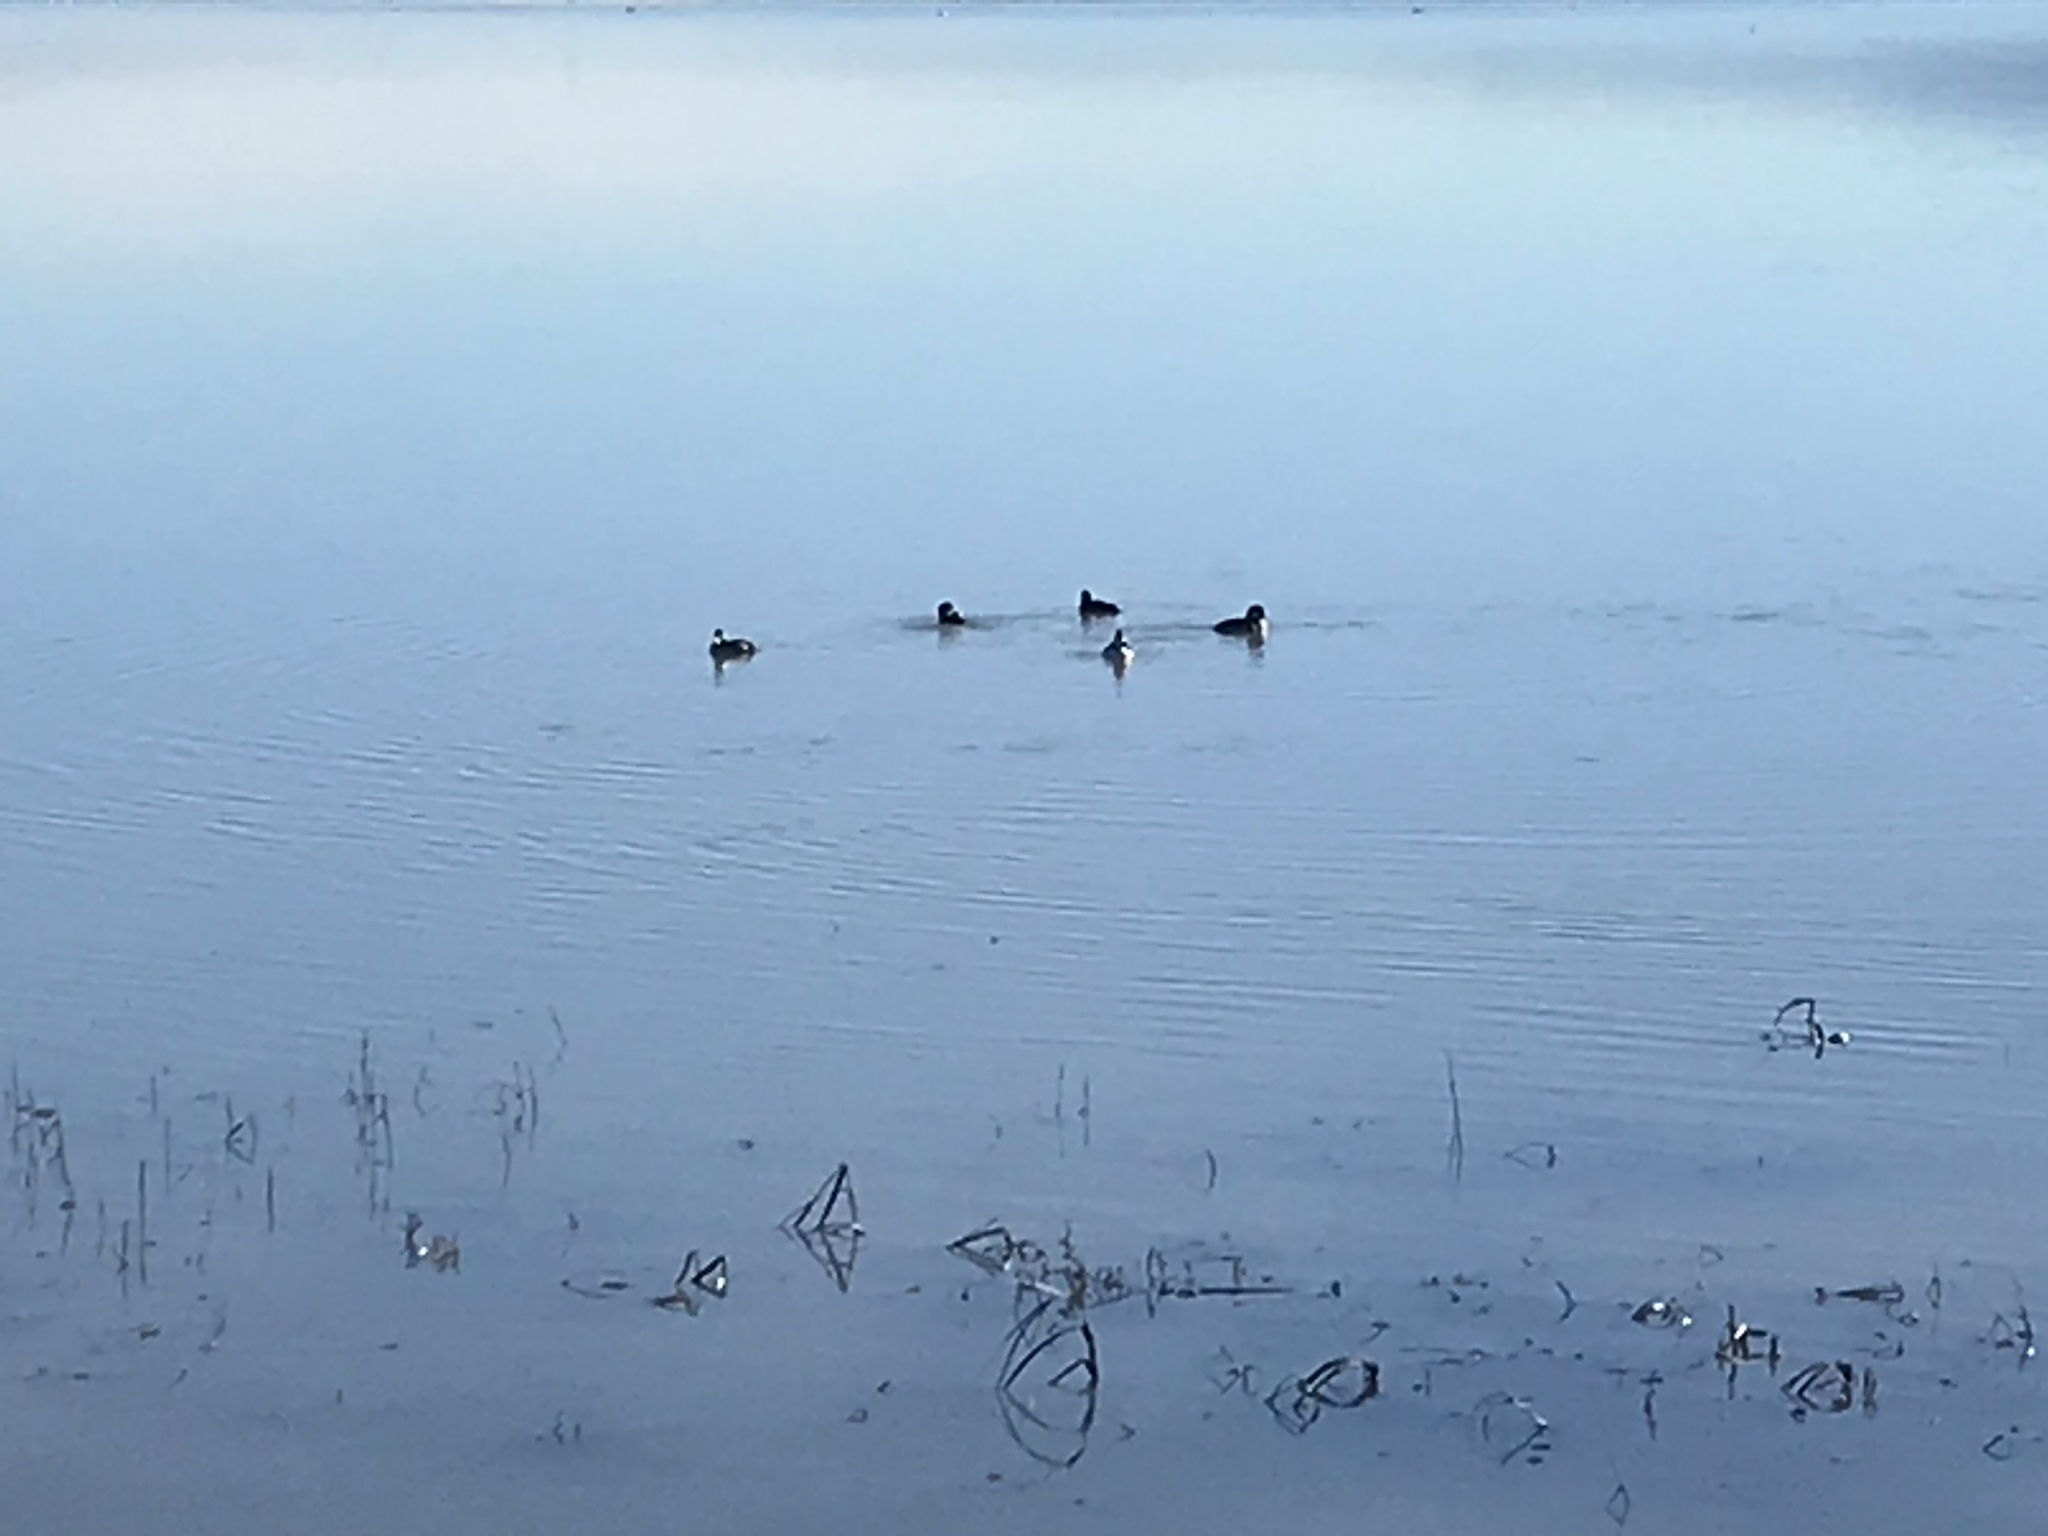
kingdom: Animalia
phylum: Chordata
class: Aves
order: Anseriformes
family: Anatidae
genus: Bucephala
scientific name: Bucephala clangula
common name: Common goldeneye
